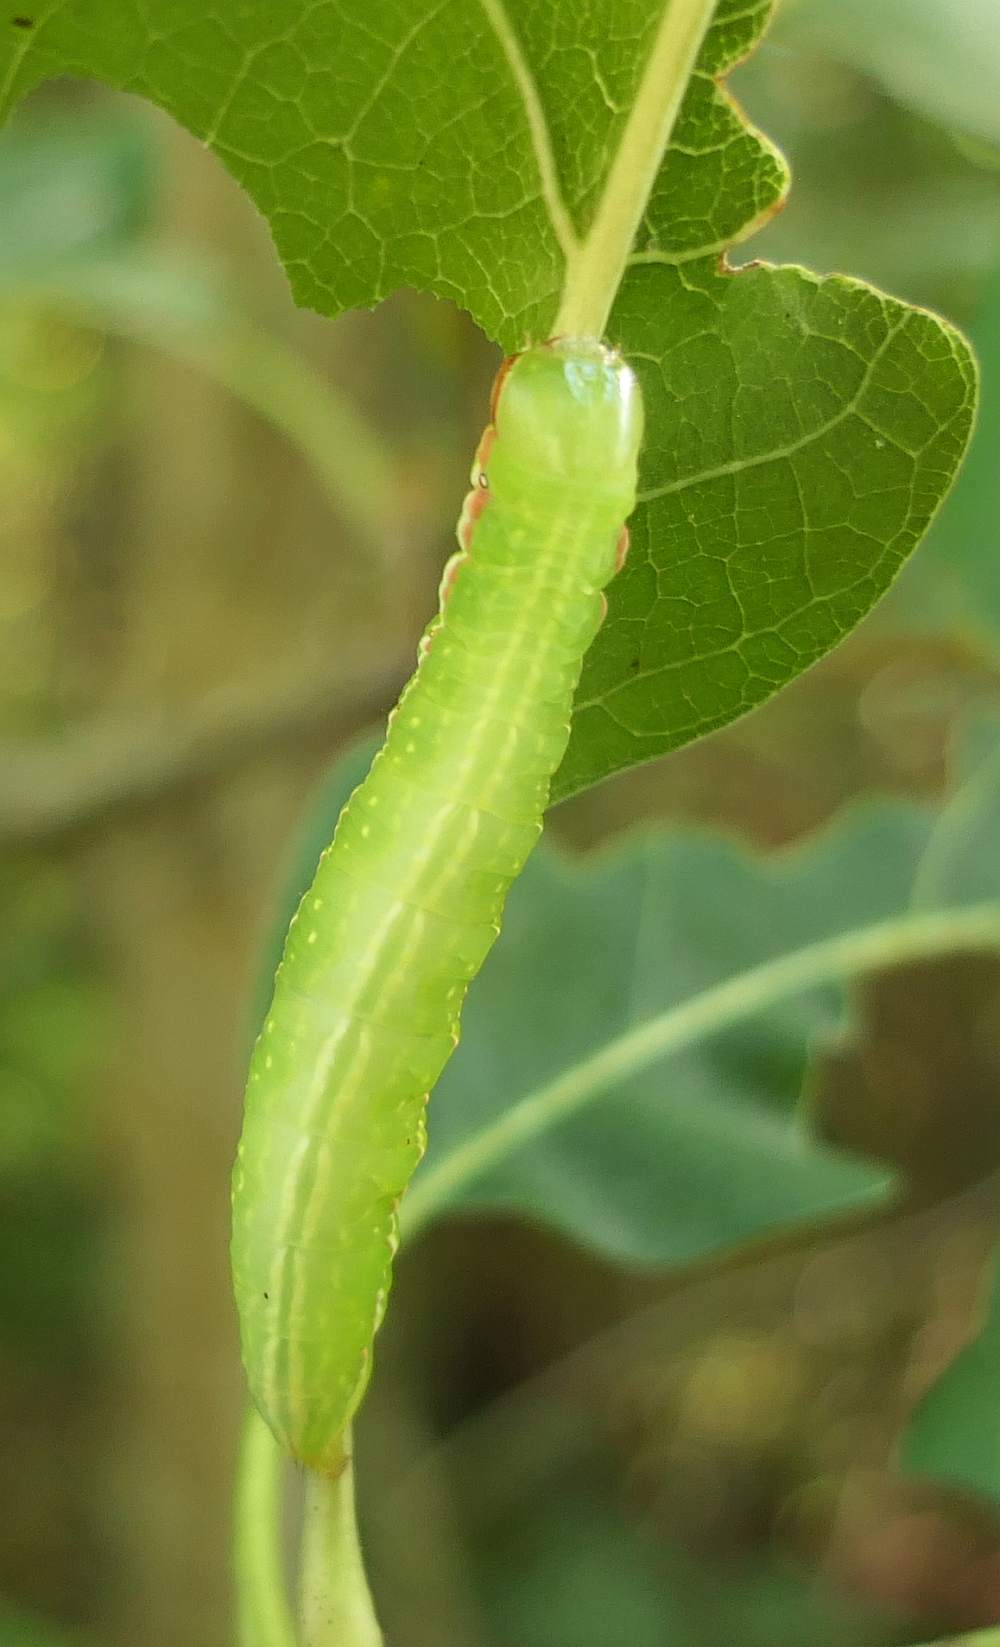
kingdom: Animalia
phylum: Arthropoda
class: Insecta
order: Lepidoptera
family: Notodontidae
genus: Peridea
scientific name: Peridea angulosa
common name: Angulose prominent
